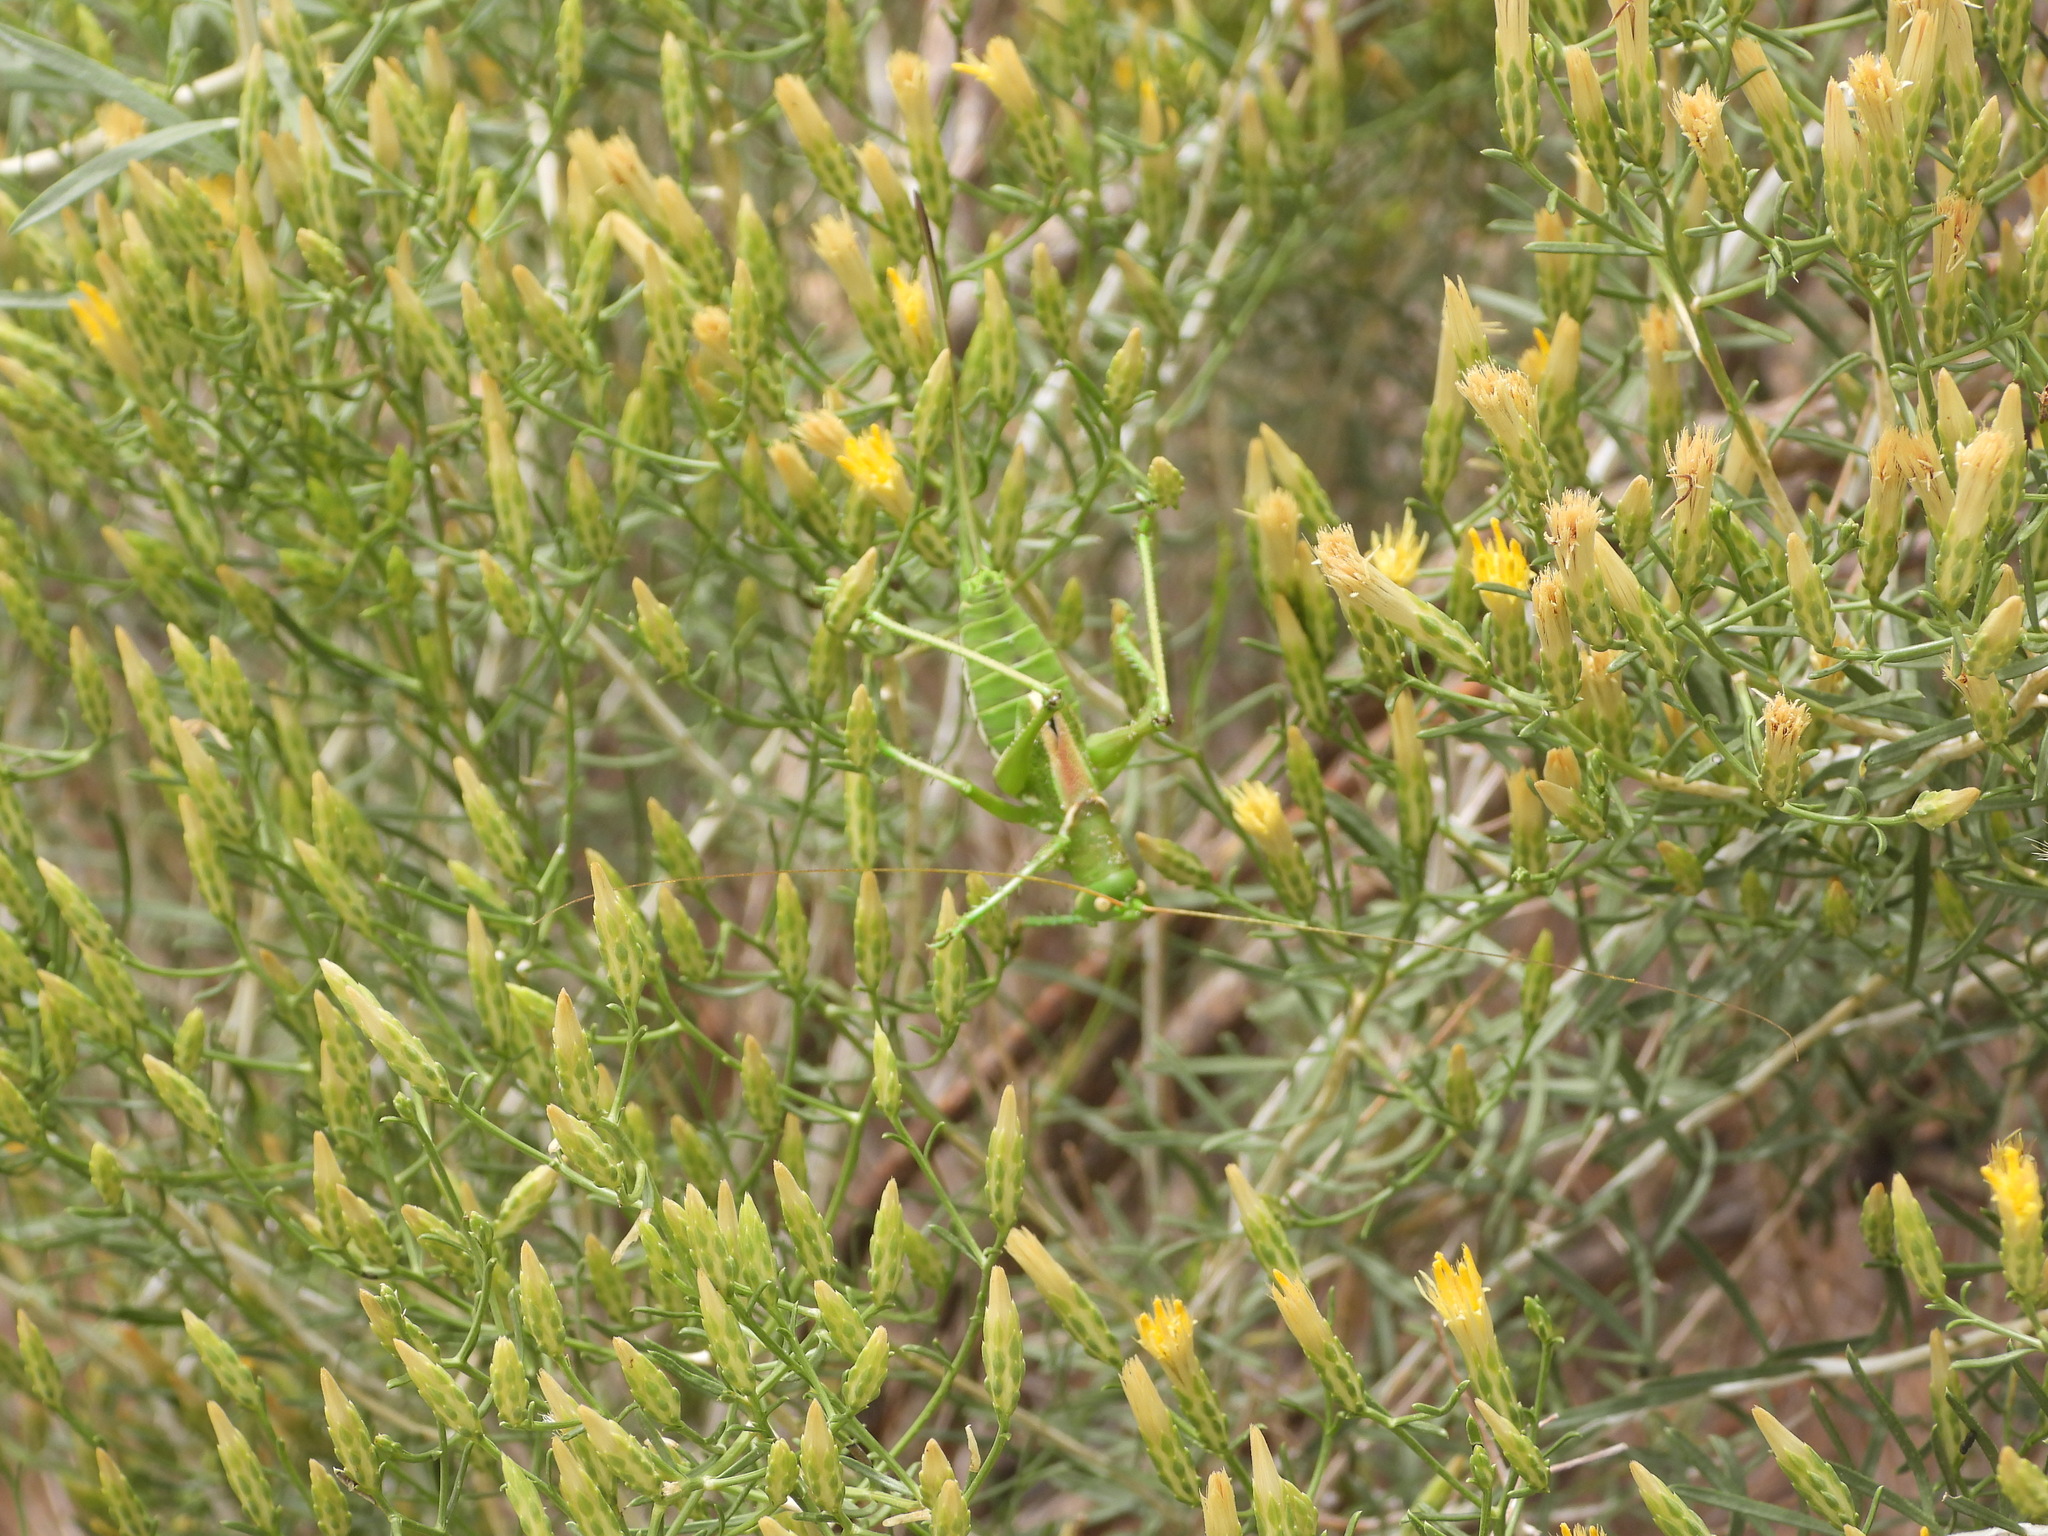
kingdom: Animalia
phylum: Arthropoda
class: Insecta
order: Orthoptera
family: Tettigoniidae
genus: Neobarrettia
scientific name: Neobarrettia victoriae
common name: Lesser arid-land katydid
